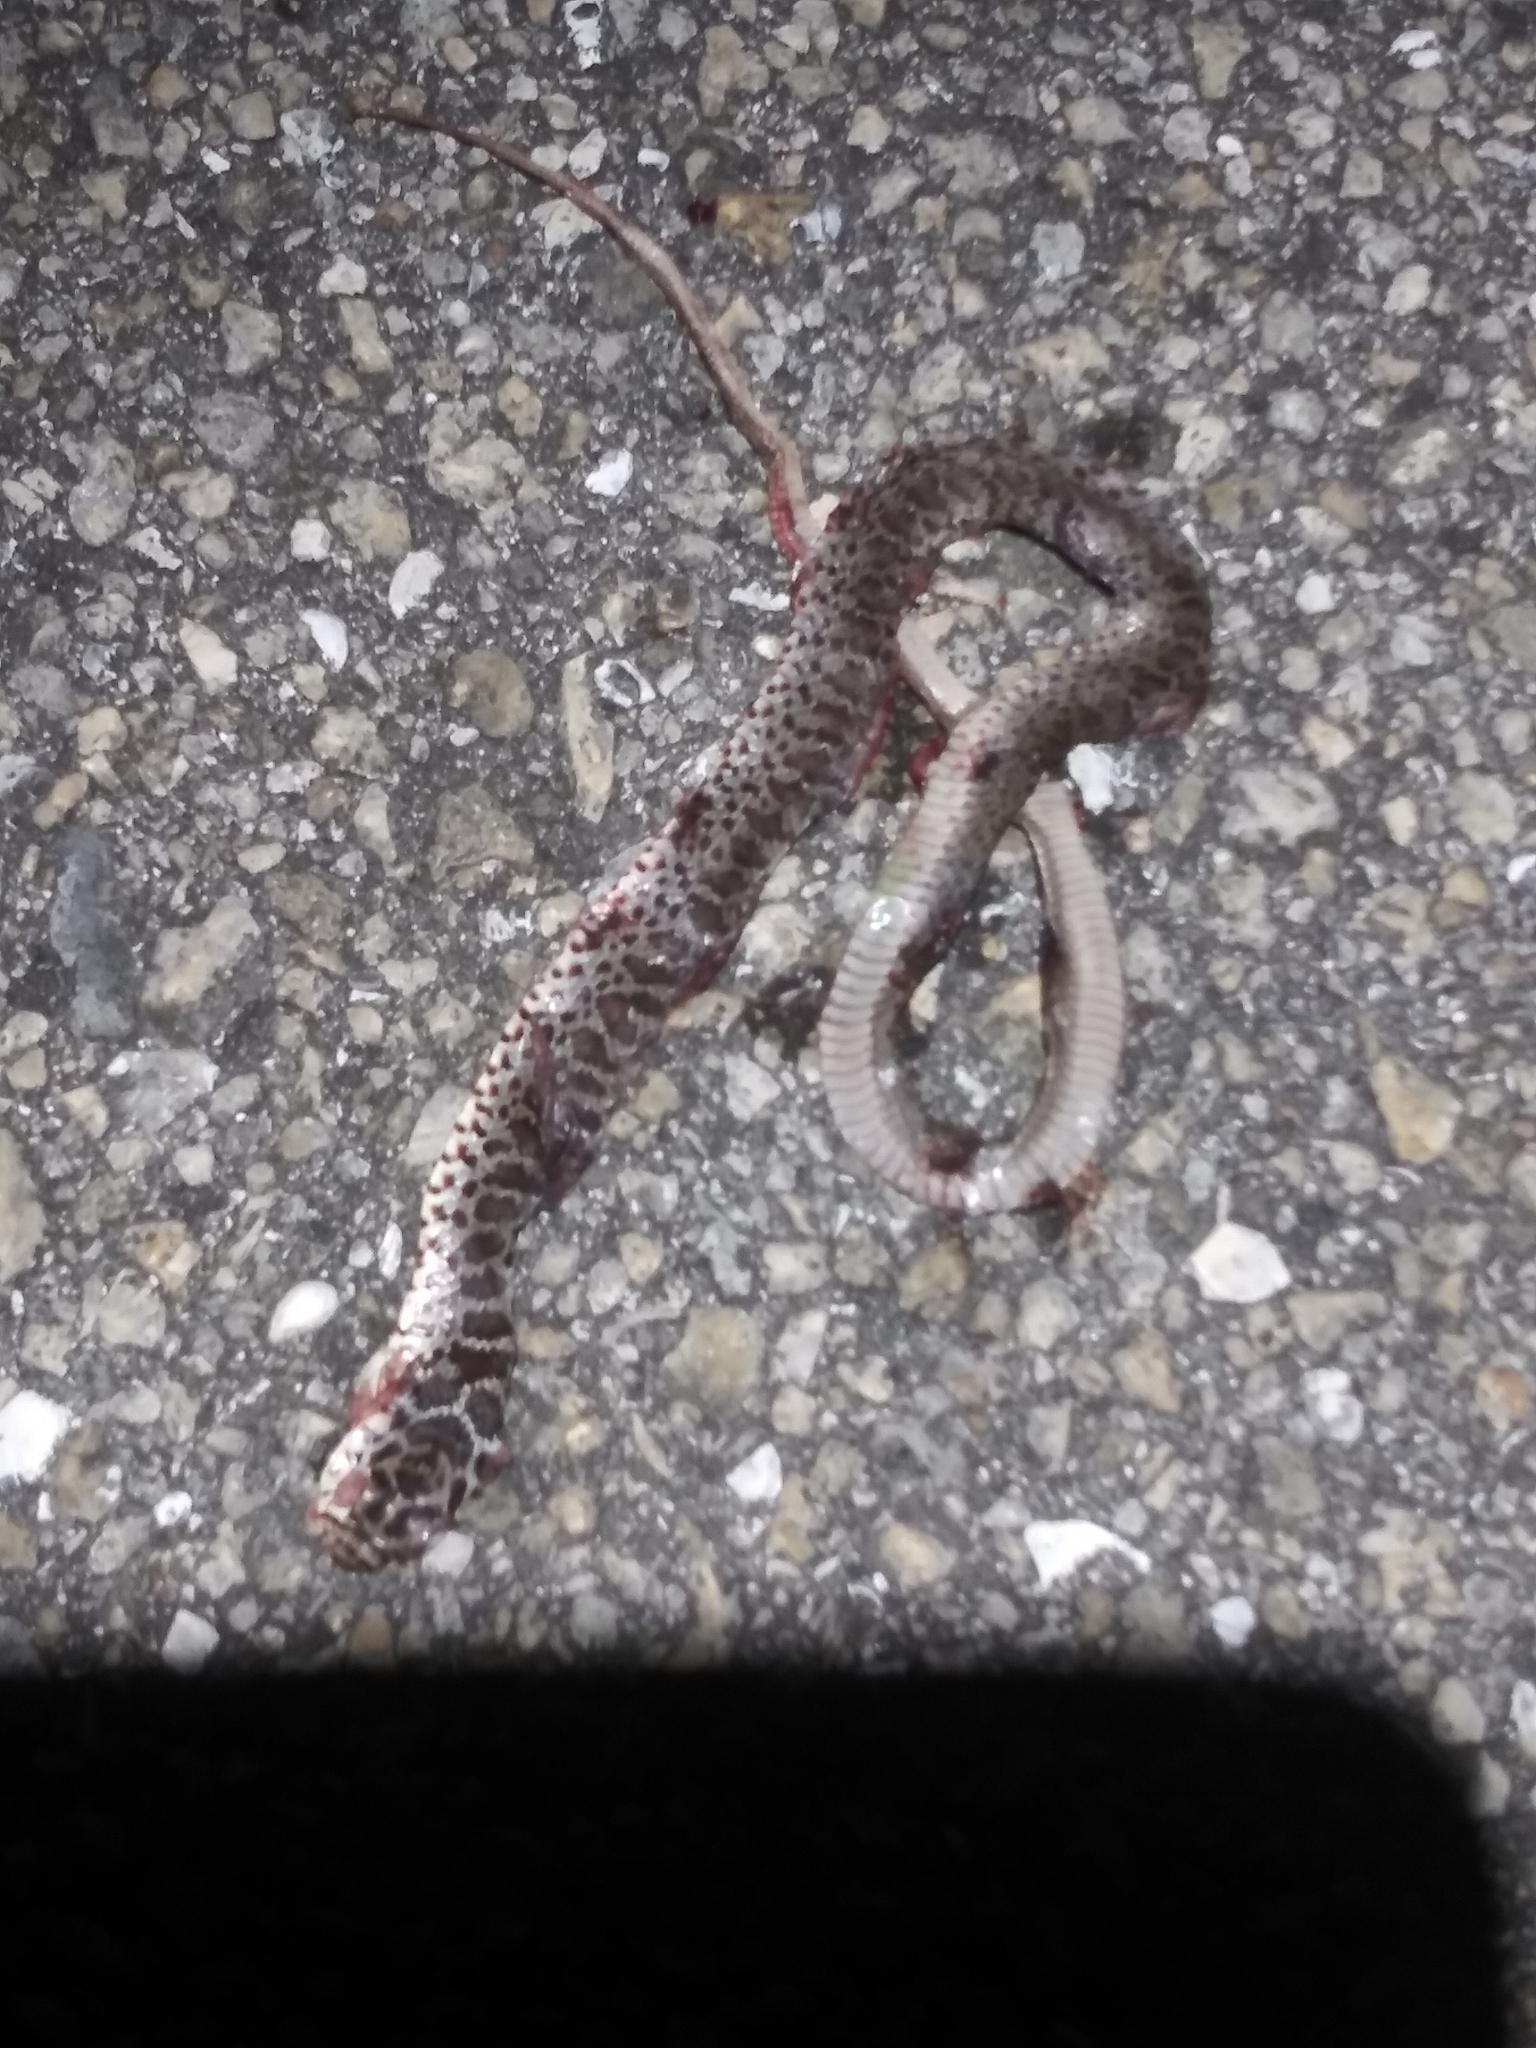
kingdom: Animalia
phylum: Chordata
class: Squamata
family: Colubridae
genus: Coluber
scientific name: Coluber constrictor
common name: Eastern racer
